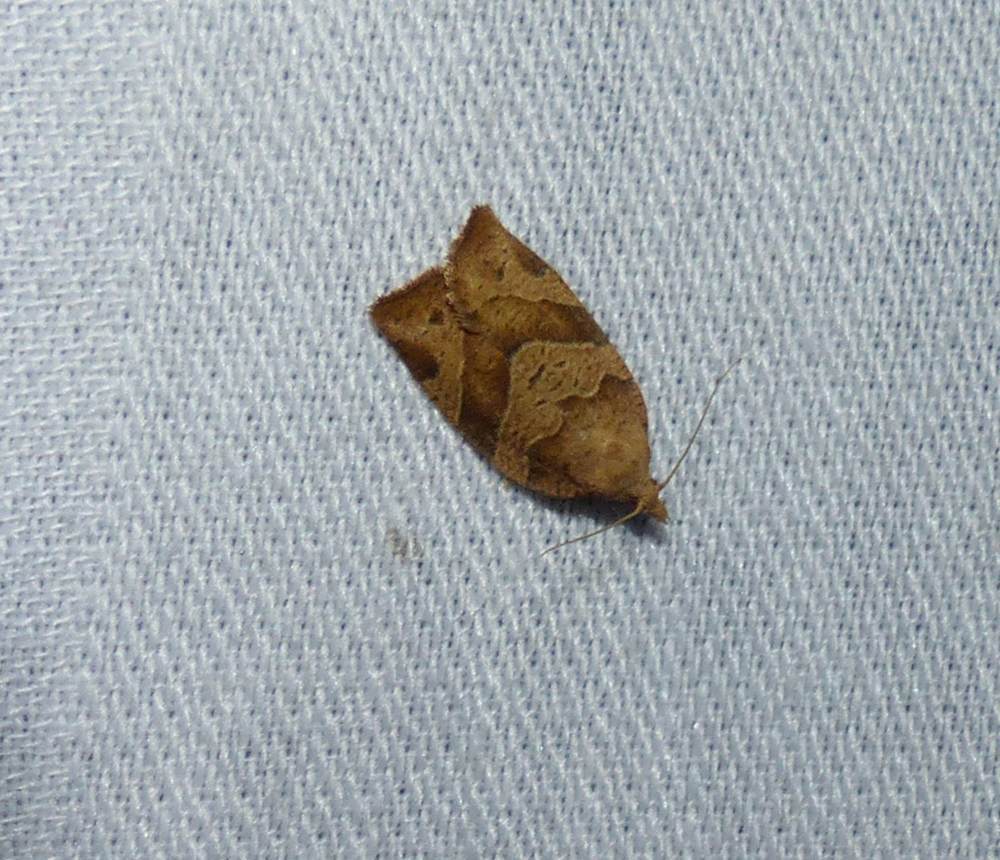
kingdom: Animalia
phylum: Arthropoda
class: Insecta
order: Lepidoptera
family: Tortricidae
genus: Pandemis
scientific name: Pandemis lamprosana
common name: Woodgrain leafroller moth
